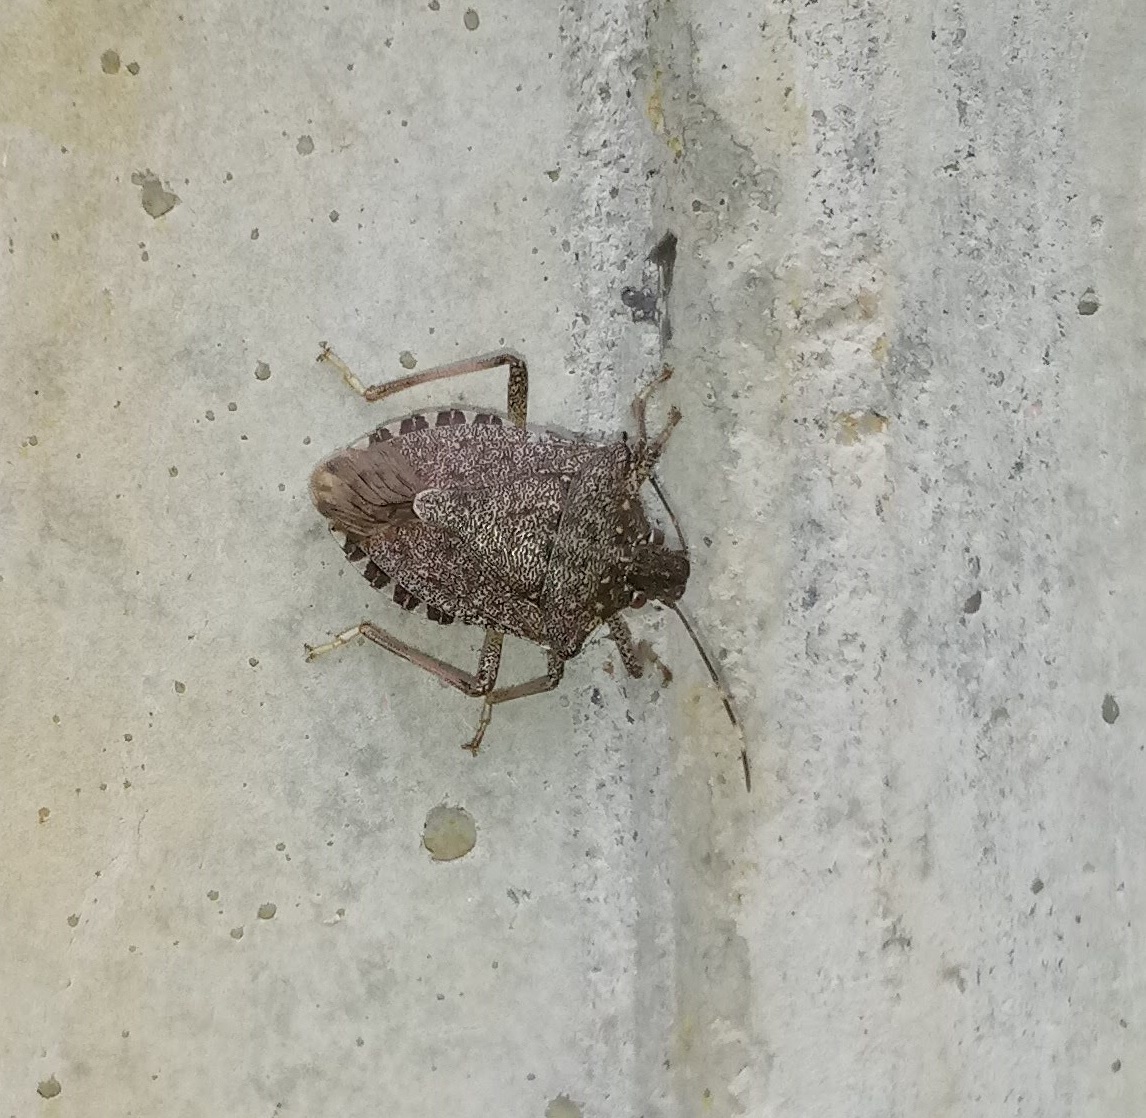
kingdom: Animalia
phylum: Arthropoda
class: Insecta
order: Hemiptera
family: Pentatomidae
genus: Halyomorpha
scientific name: Halyomorpha halys
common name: Brown marmorated stink bug
